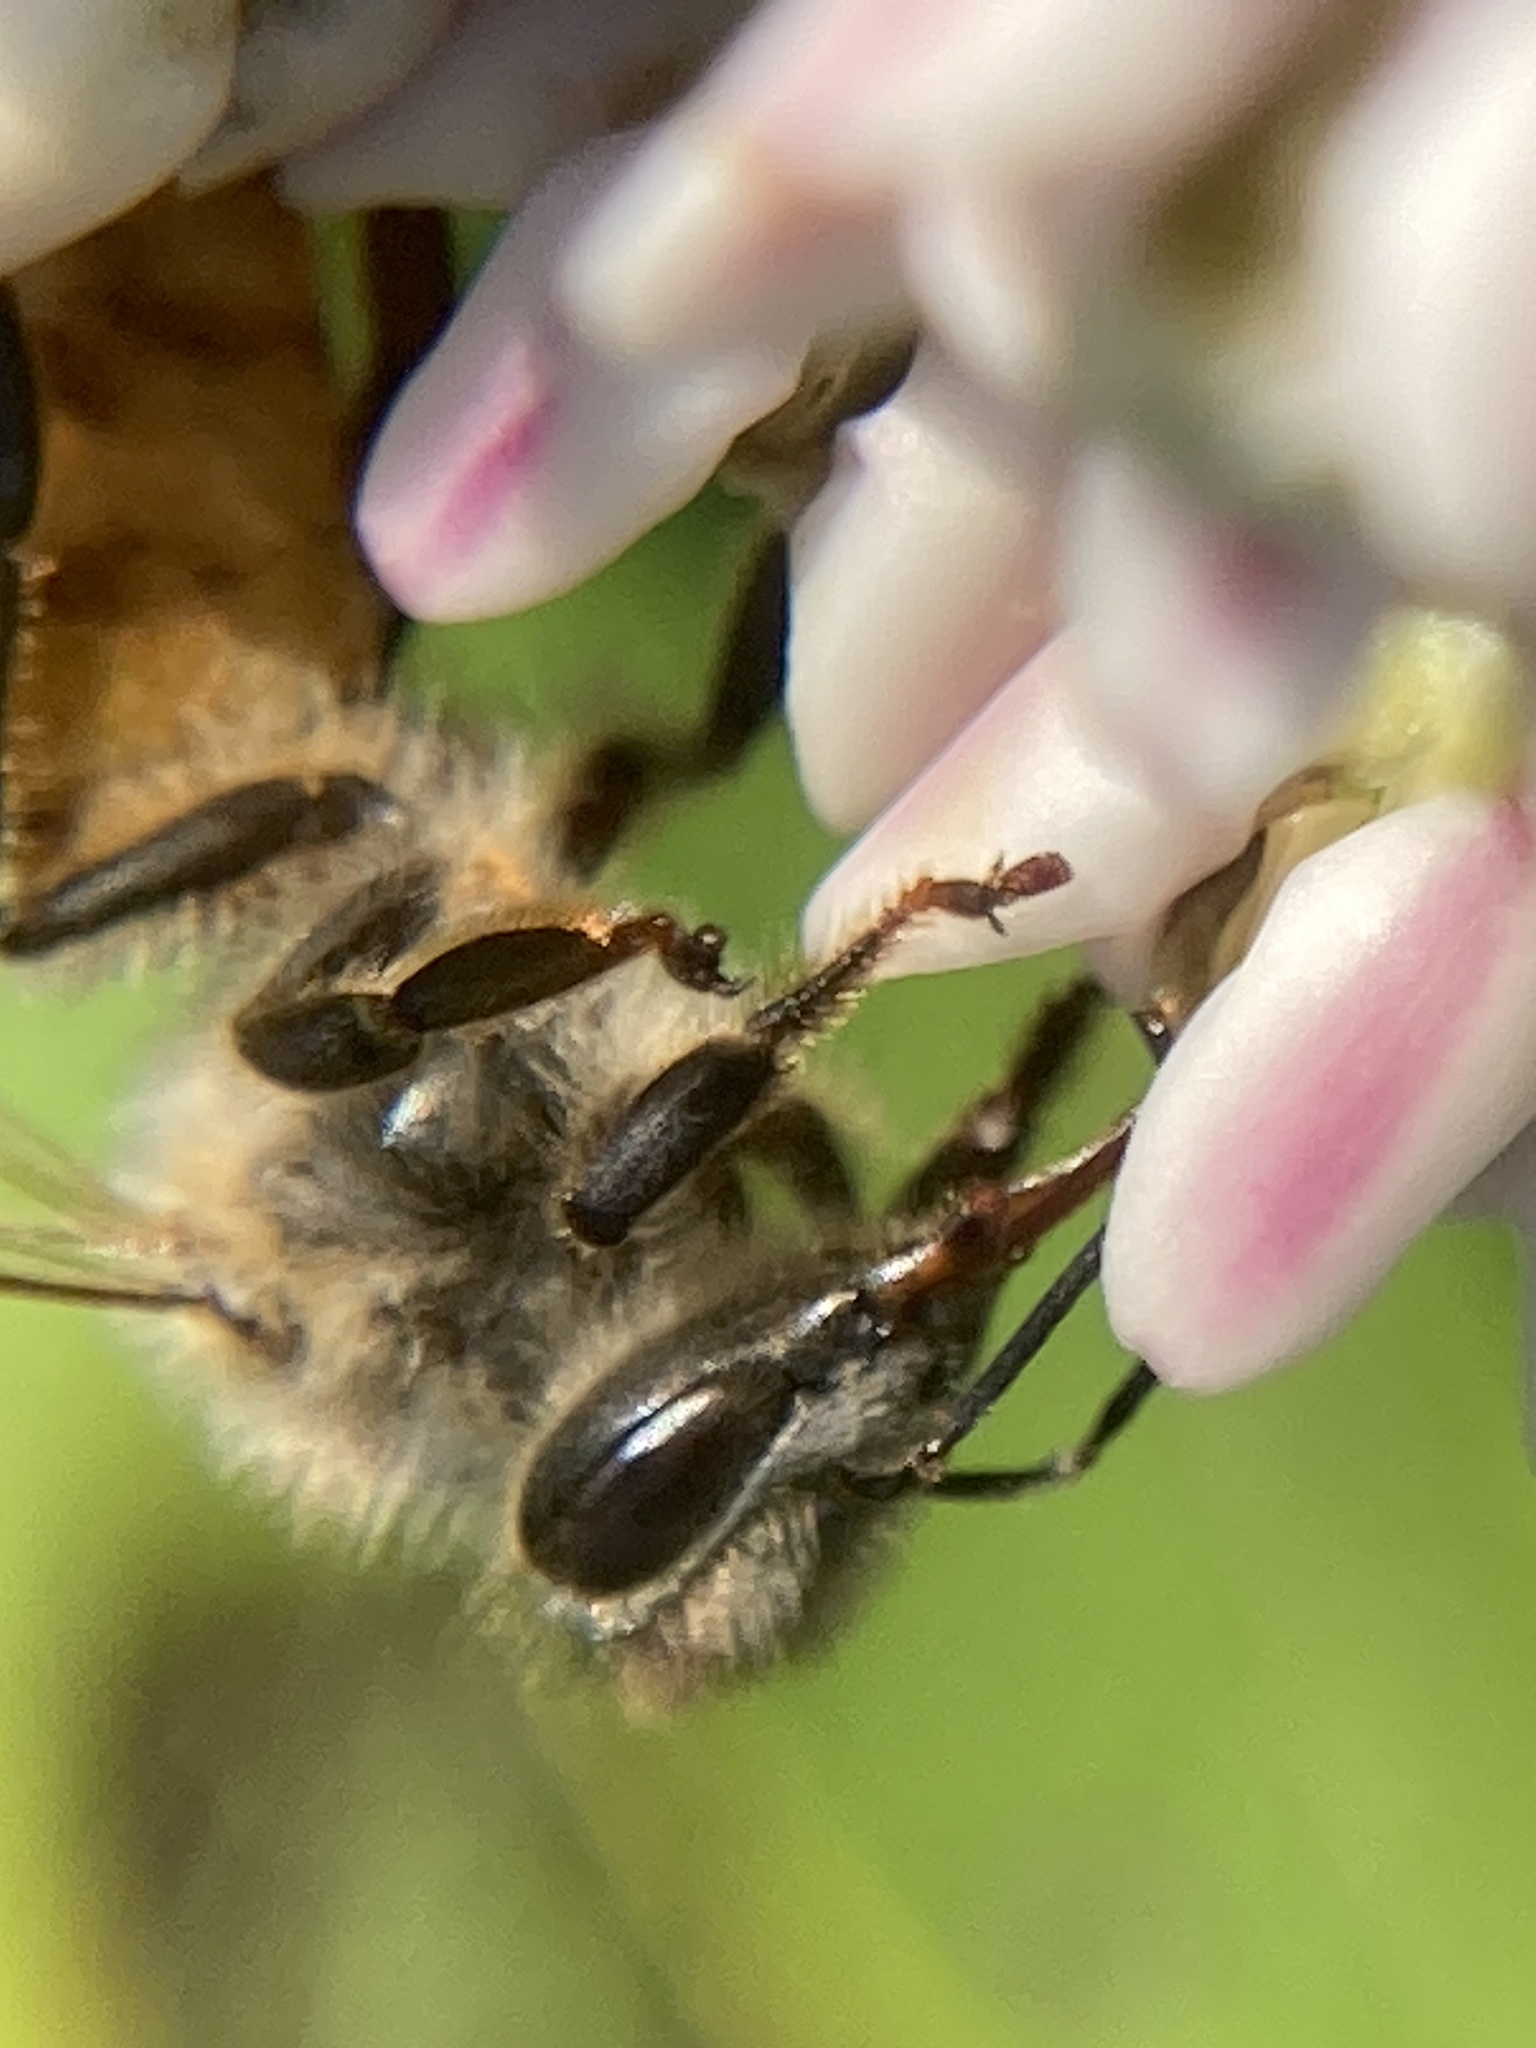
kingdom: Animalia
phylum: Arthropoda
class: Insecta
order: Hymenoptera
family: Apidae
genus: Apis
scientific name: Apis mellifera
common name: Honey bee
